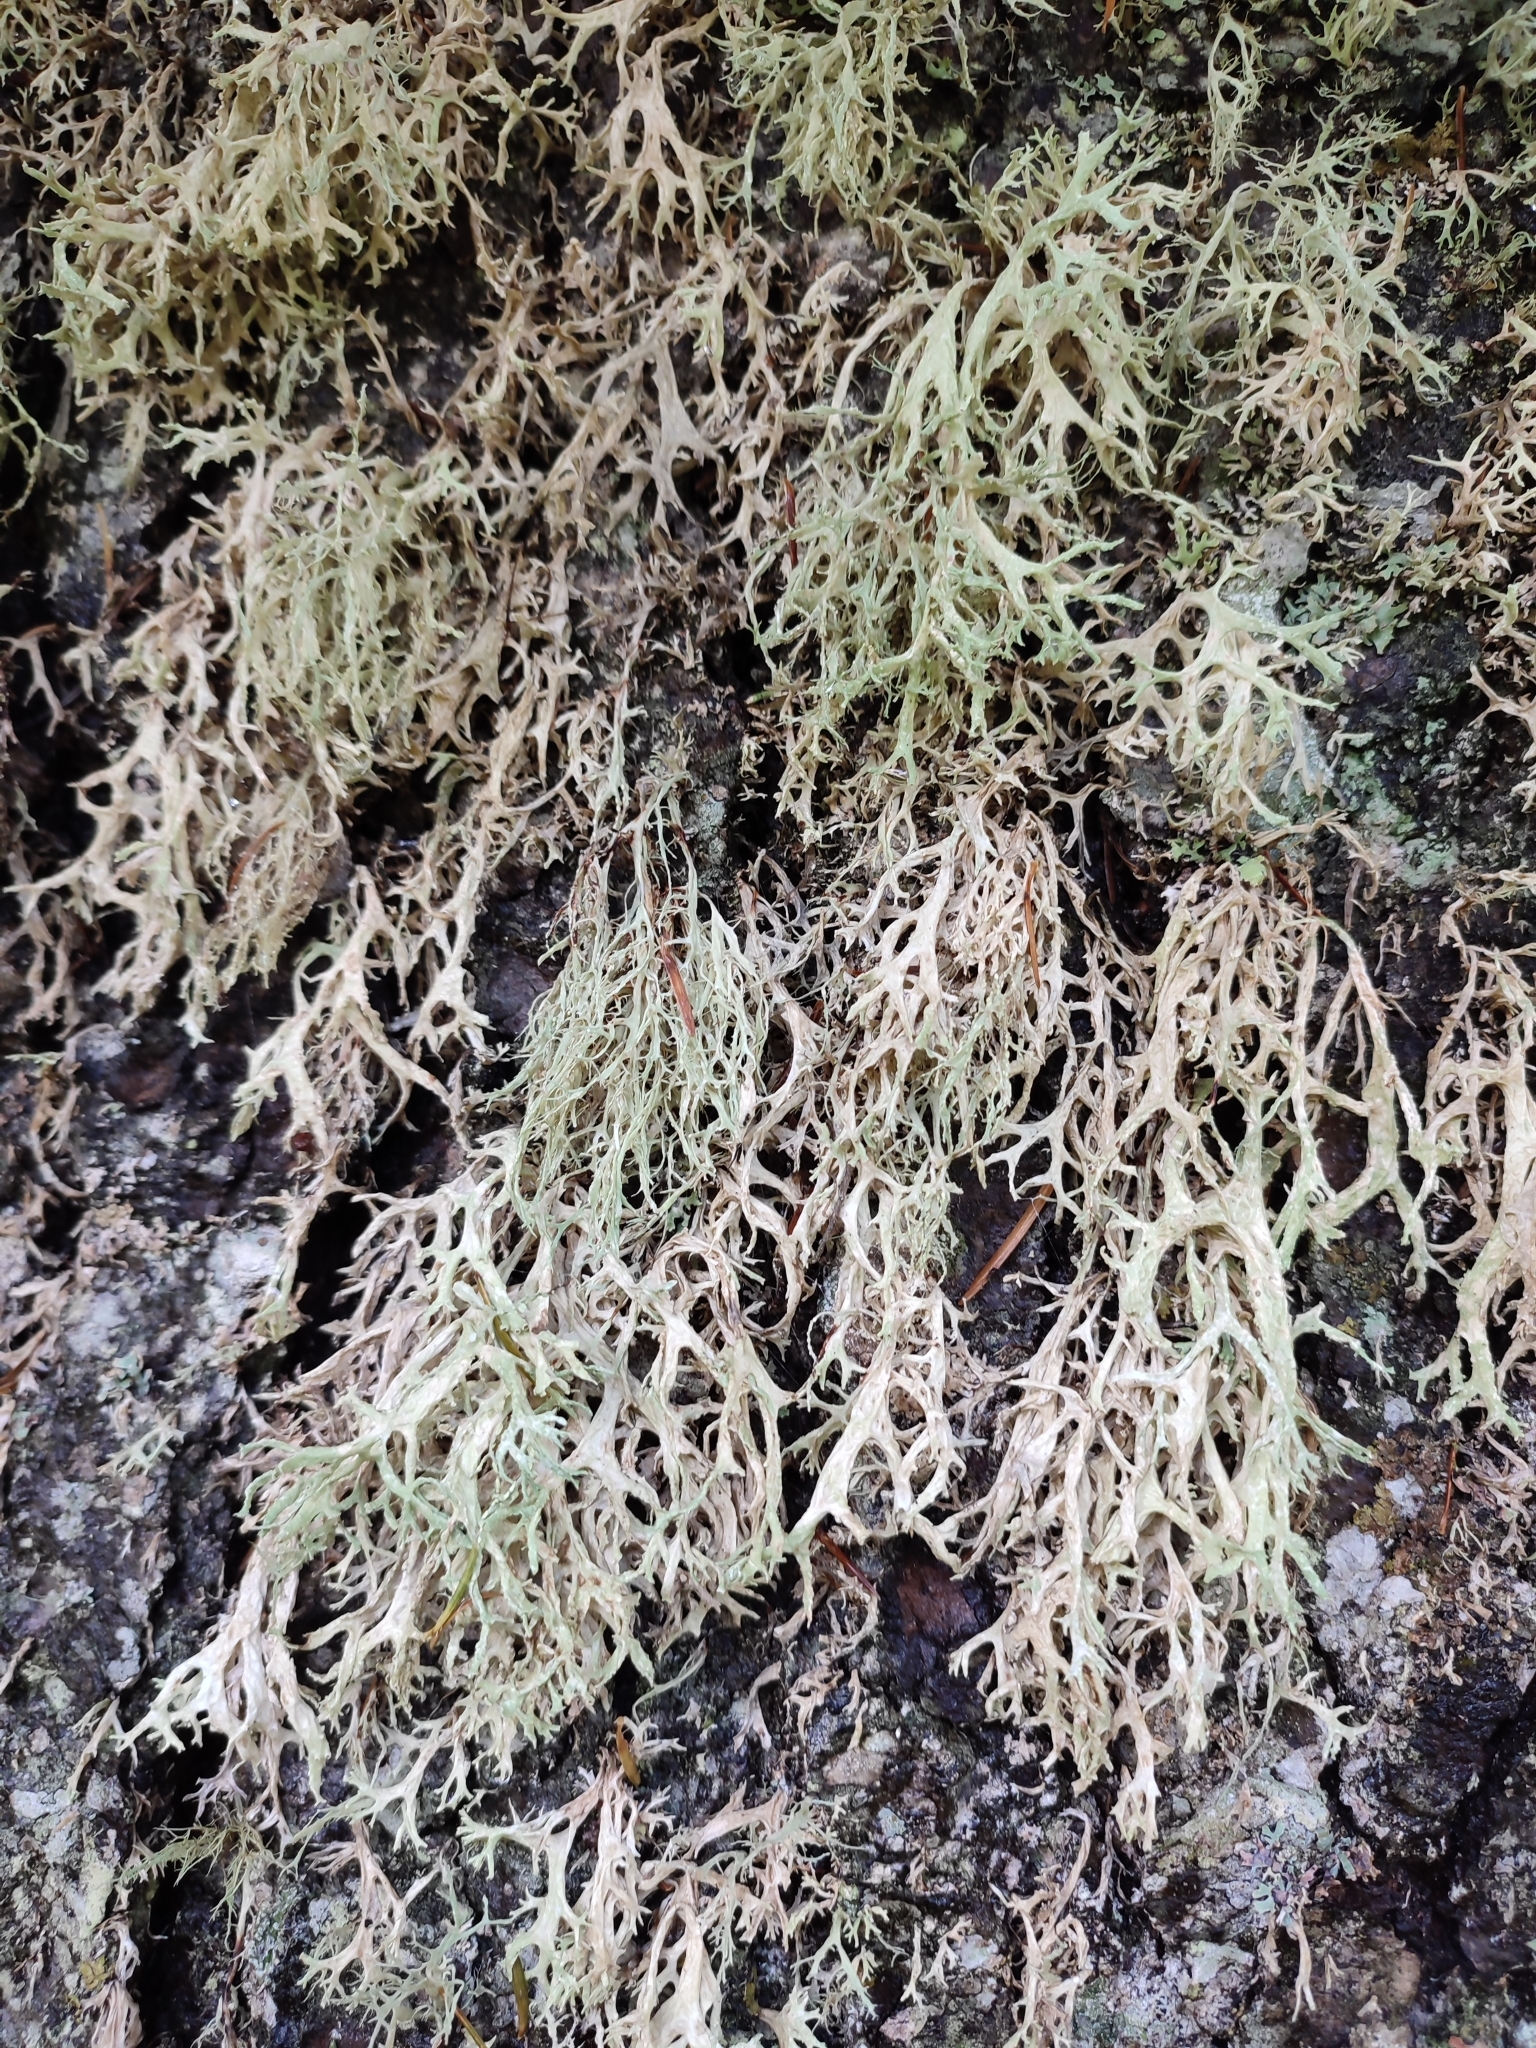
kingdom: Fungi
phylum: Ascomycota
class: Lecanoromycetes
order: Lecanorales
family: Parmeliaceae
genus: Evernia
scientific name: Evernia prunastri
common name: Oak moss
